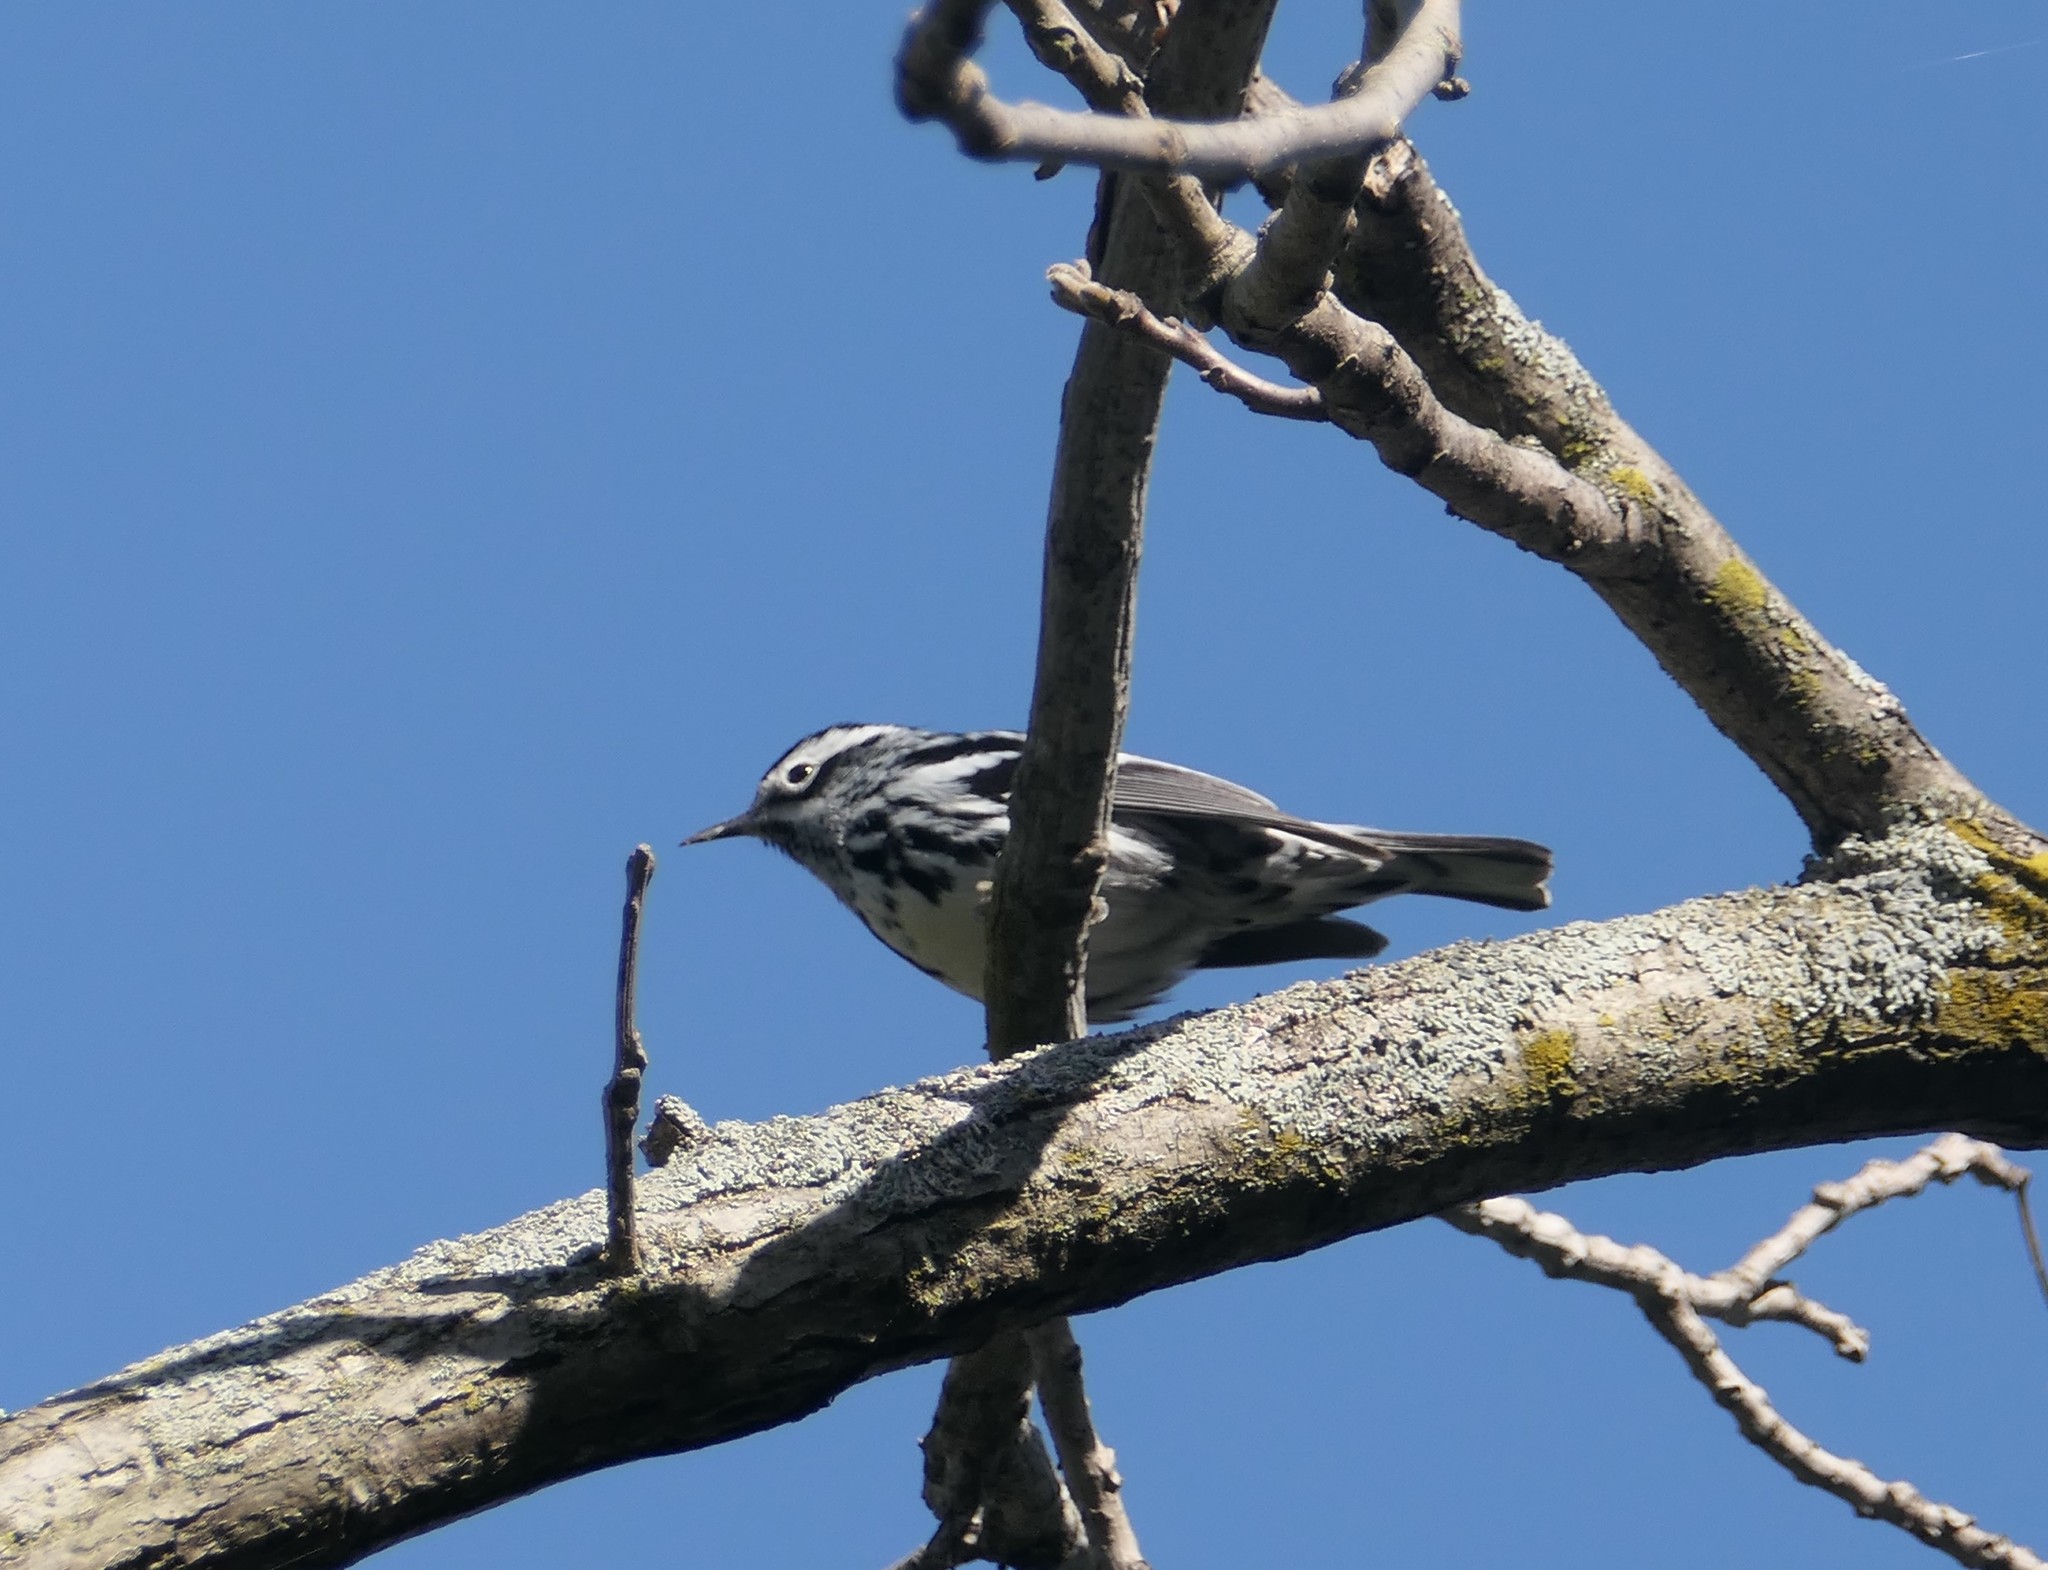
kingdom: Animalia
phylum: Chordata
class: Aves
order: Passeriformes
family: Parulidae
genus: Mniotilta
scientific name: Mniotilta varia
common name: Black-and-white warbler
